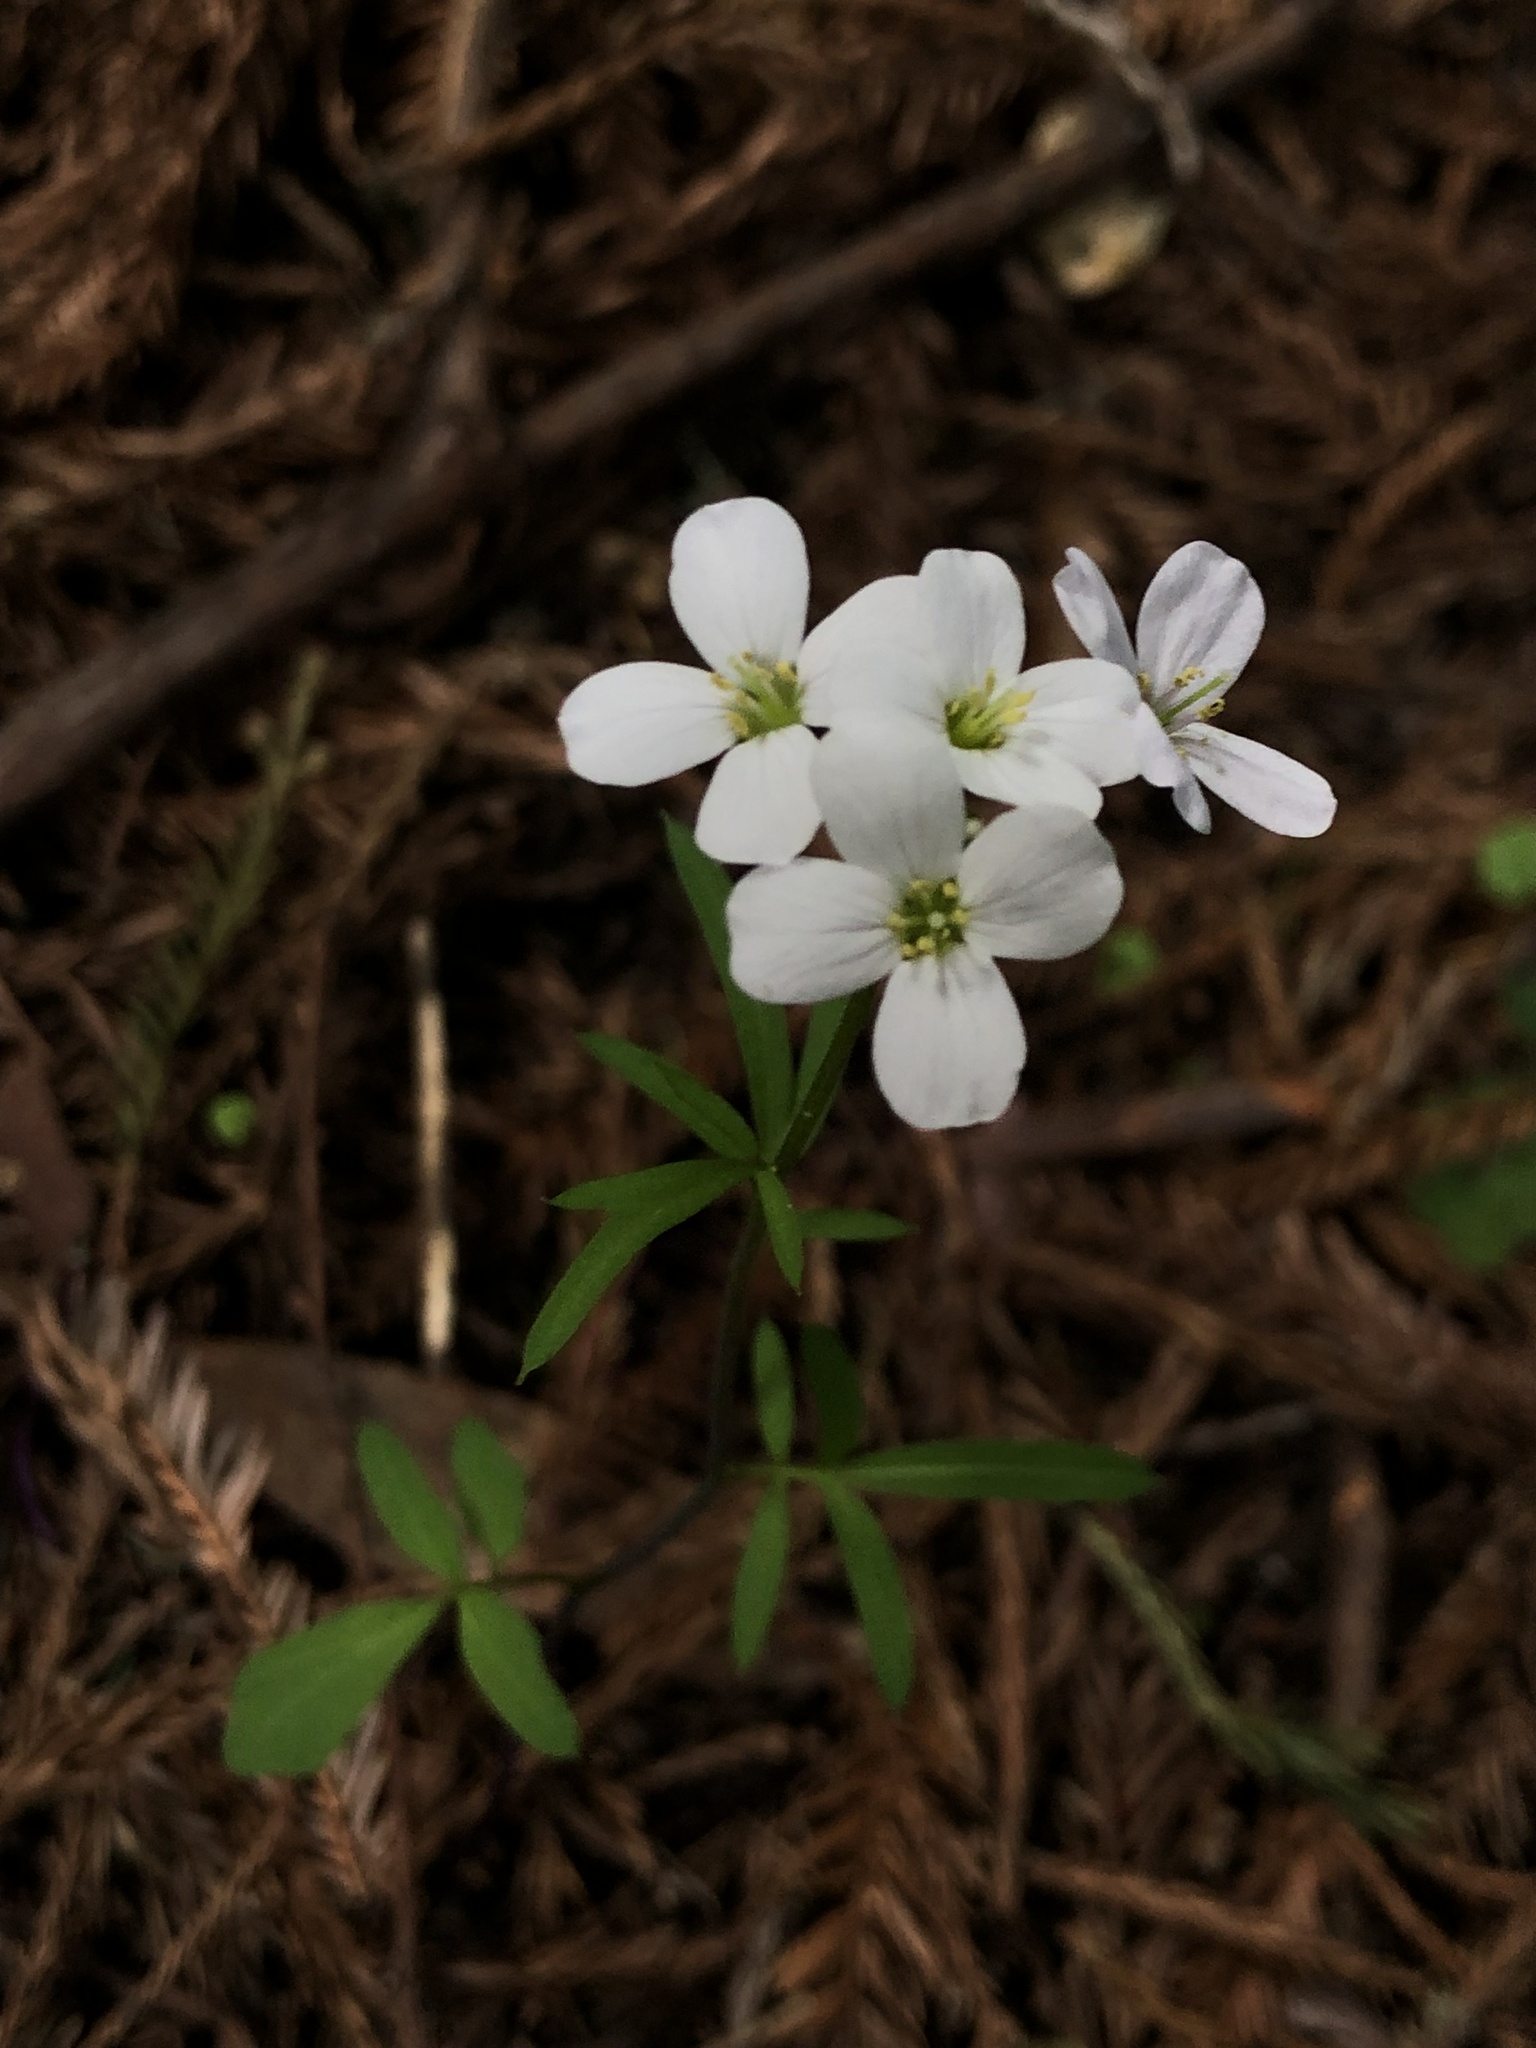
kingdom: Plantae
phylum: Tracheophyta
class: Magnoliopsida
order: Brassicales
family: Brassicaceae
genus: Cardamine
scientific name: Cardamine californica
